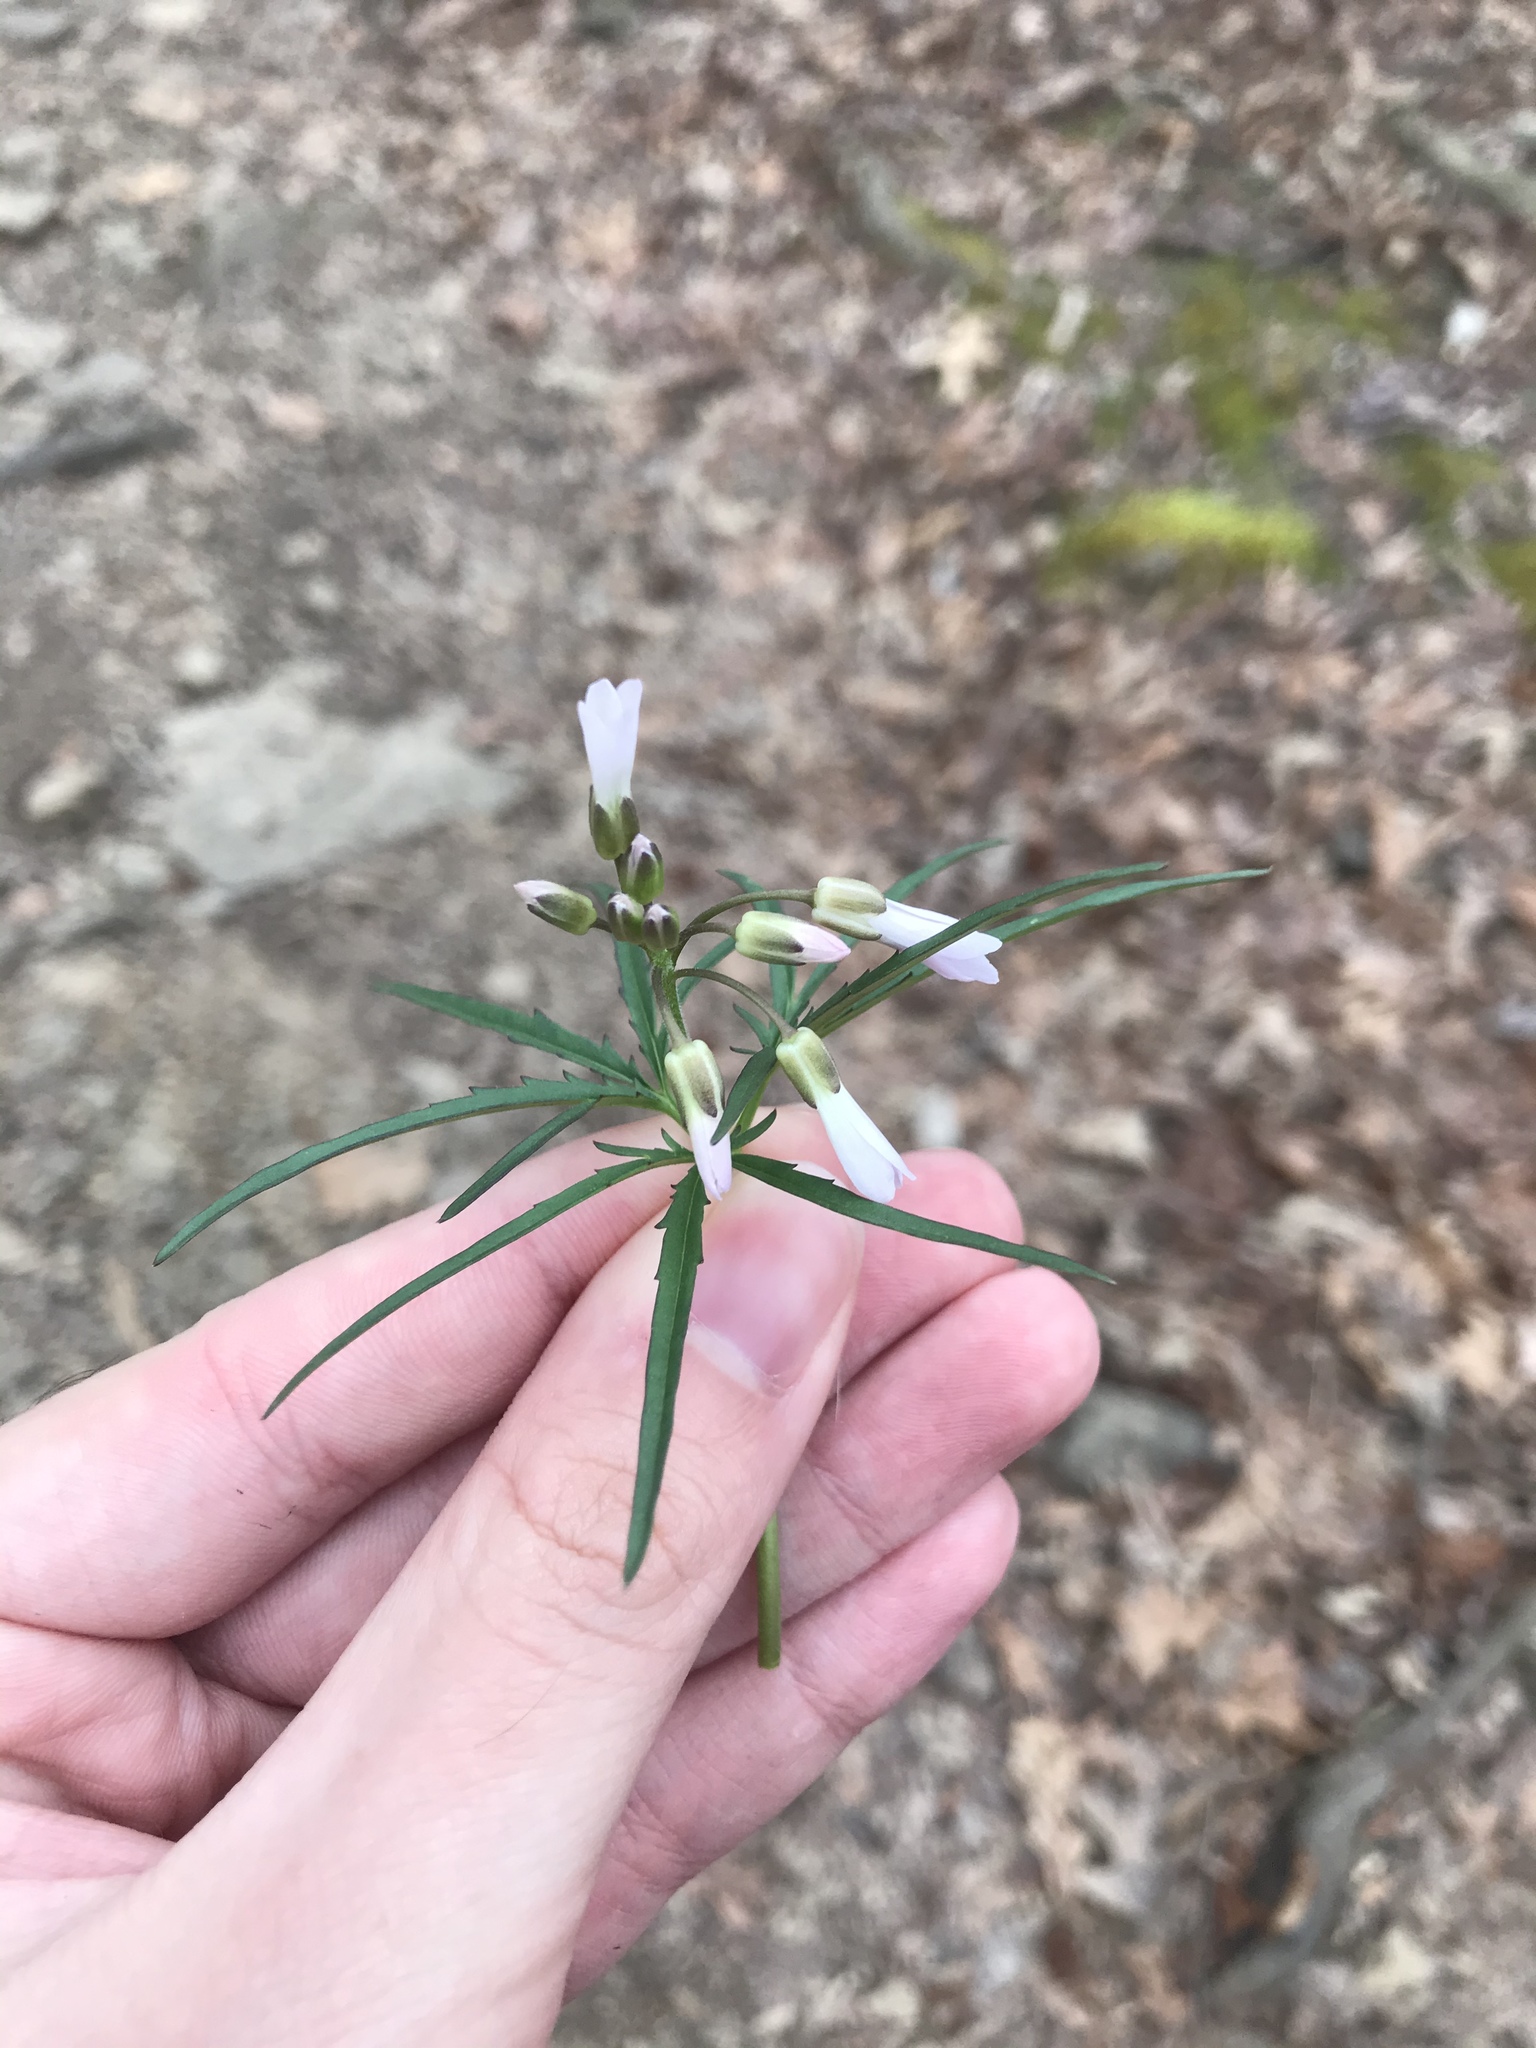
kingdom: Plantae
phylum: Tracheophyta
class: Magnoliopsida
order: Brassicales
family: Brassicaceae
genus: Cardamine
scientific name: Cardamine concatenata
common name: Cut-leaf toothcup
